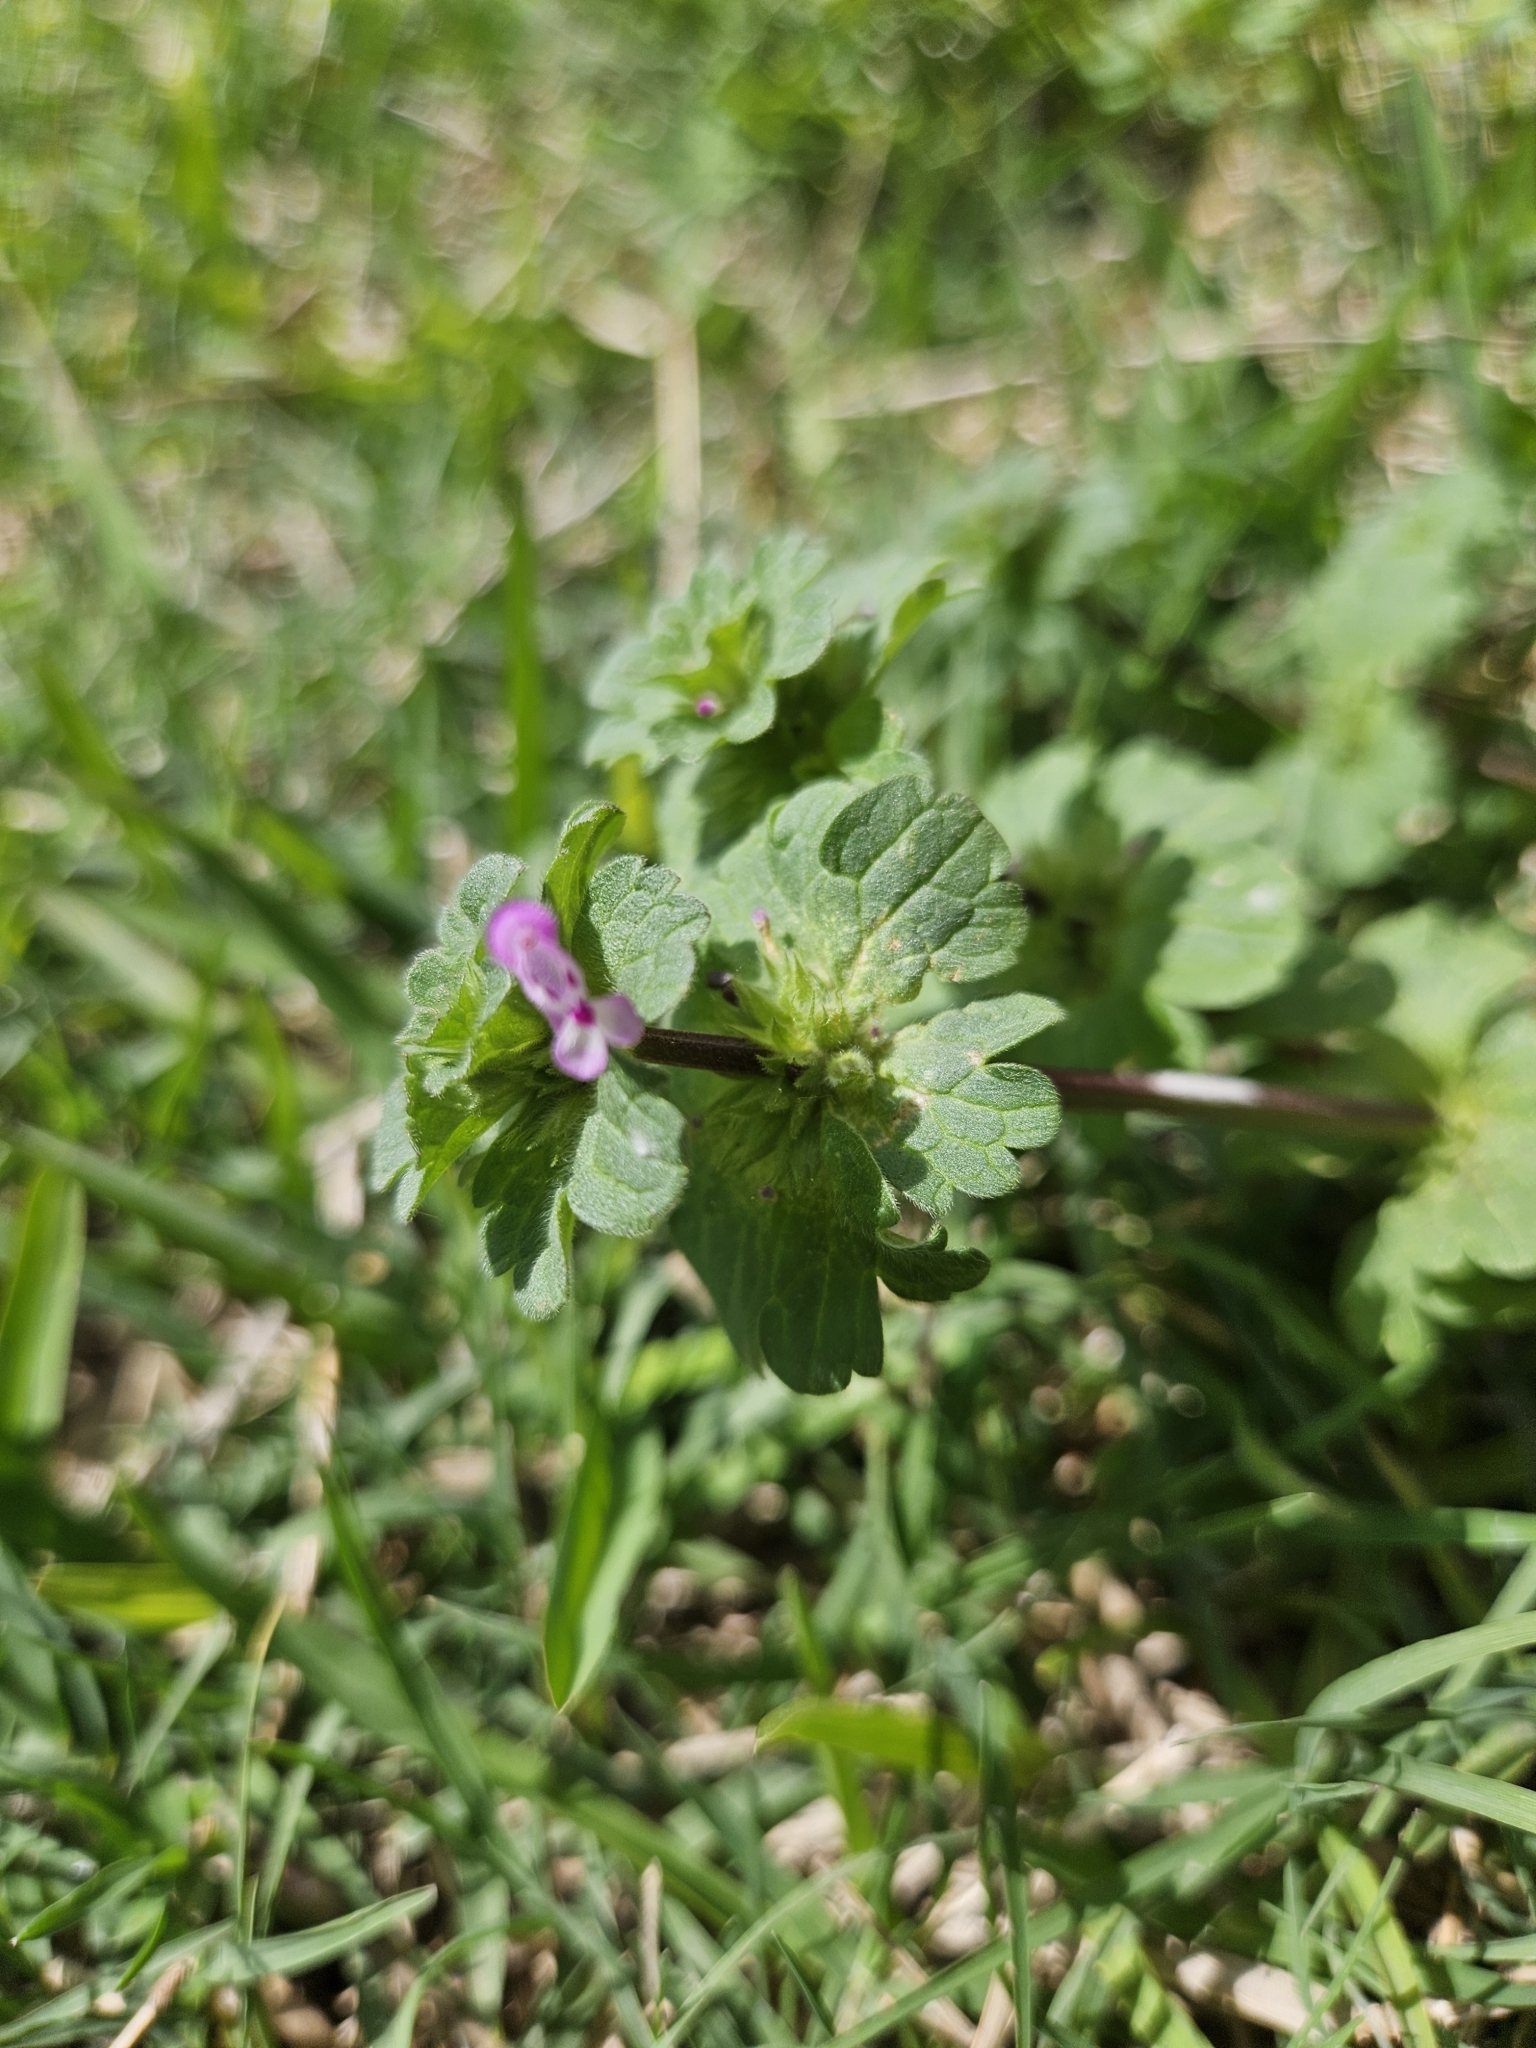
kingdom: Plantae
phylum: Tracheophyta
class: Magnoliopsida
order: Lamiales
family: Lamiaceae
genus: Lamium
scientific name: Lamium amplexicaule
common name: Henbit dead-nettle
